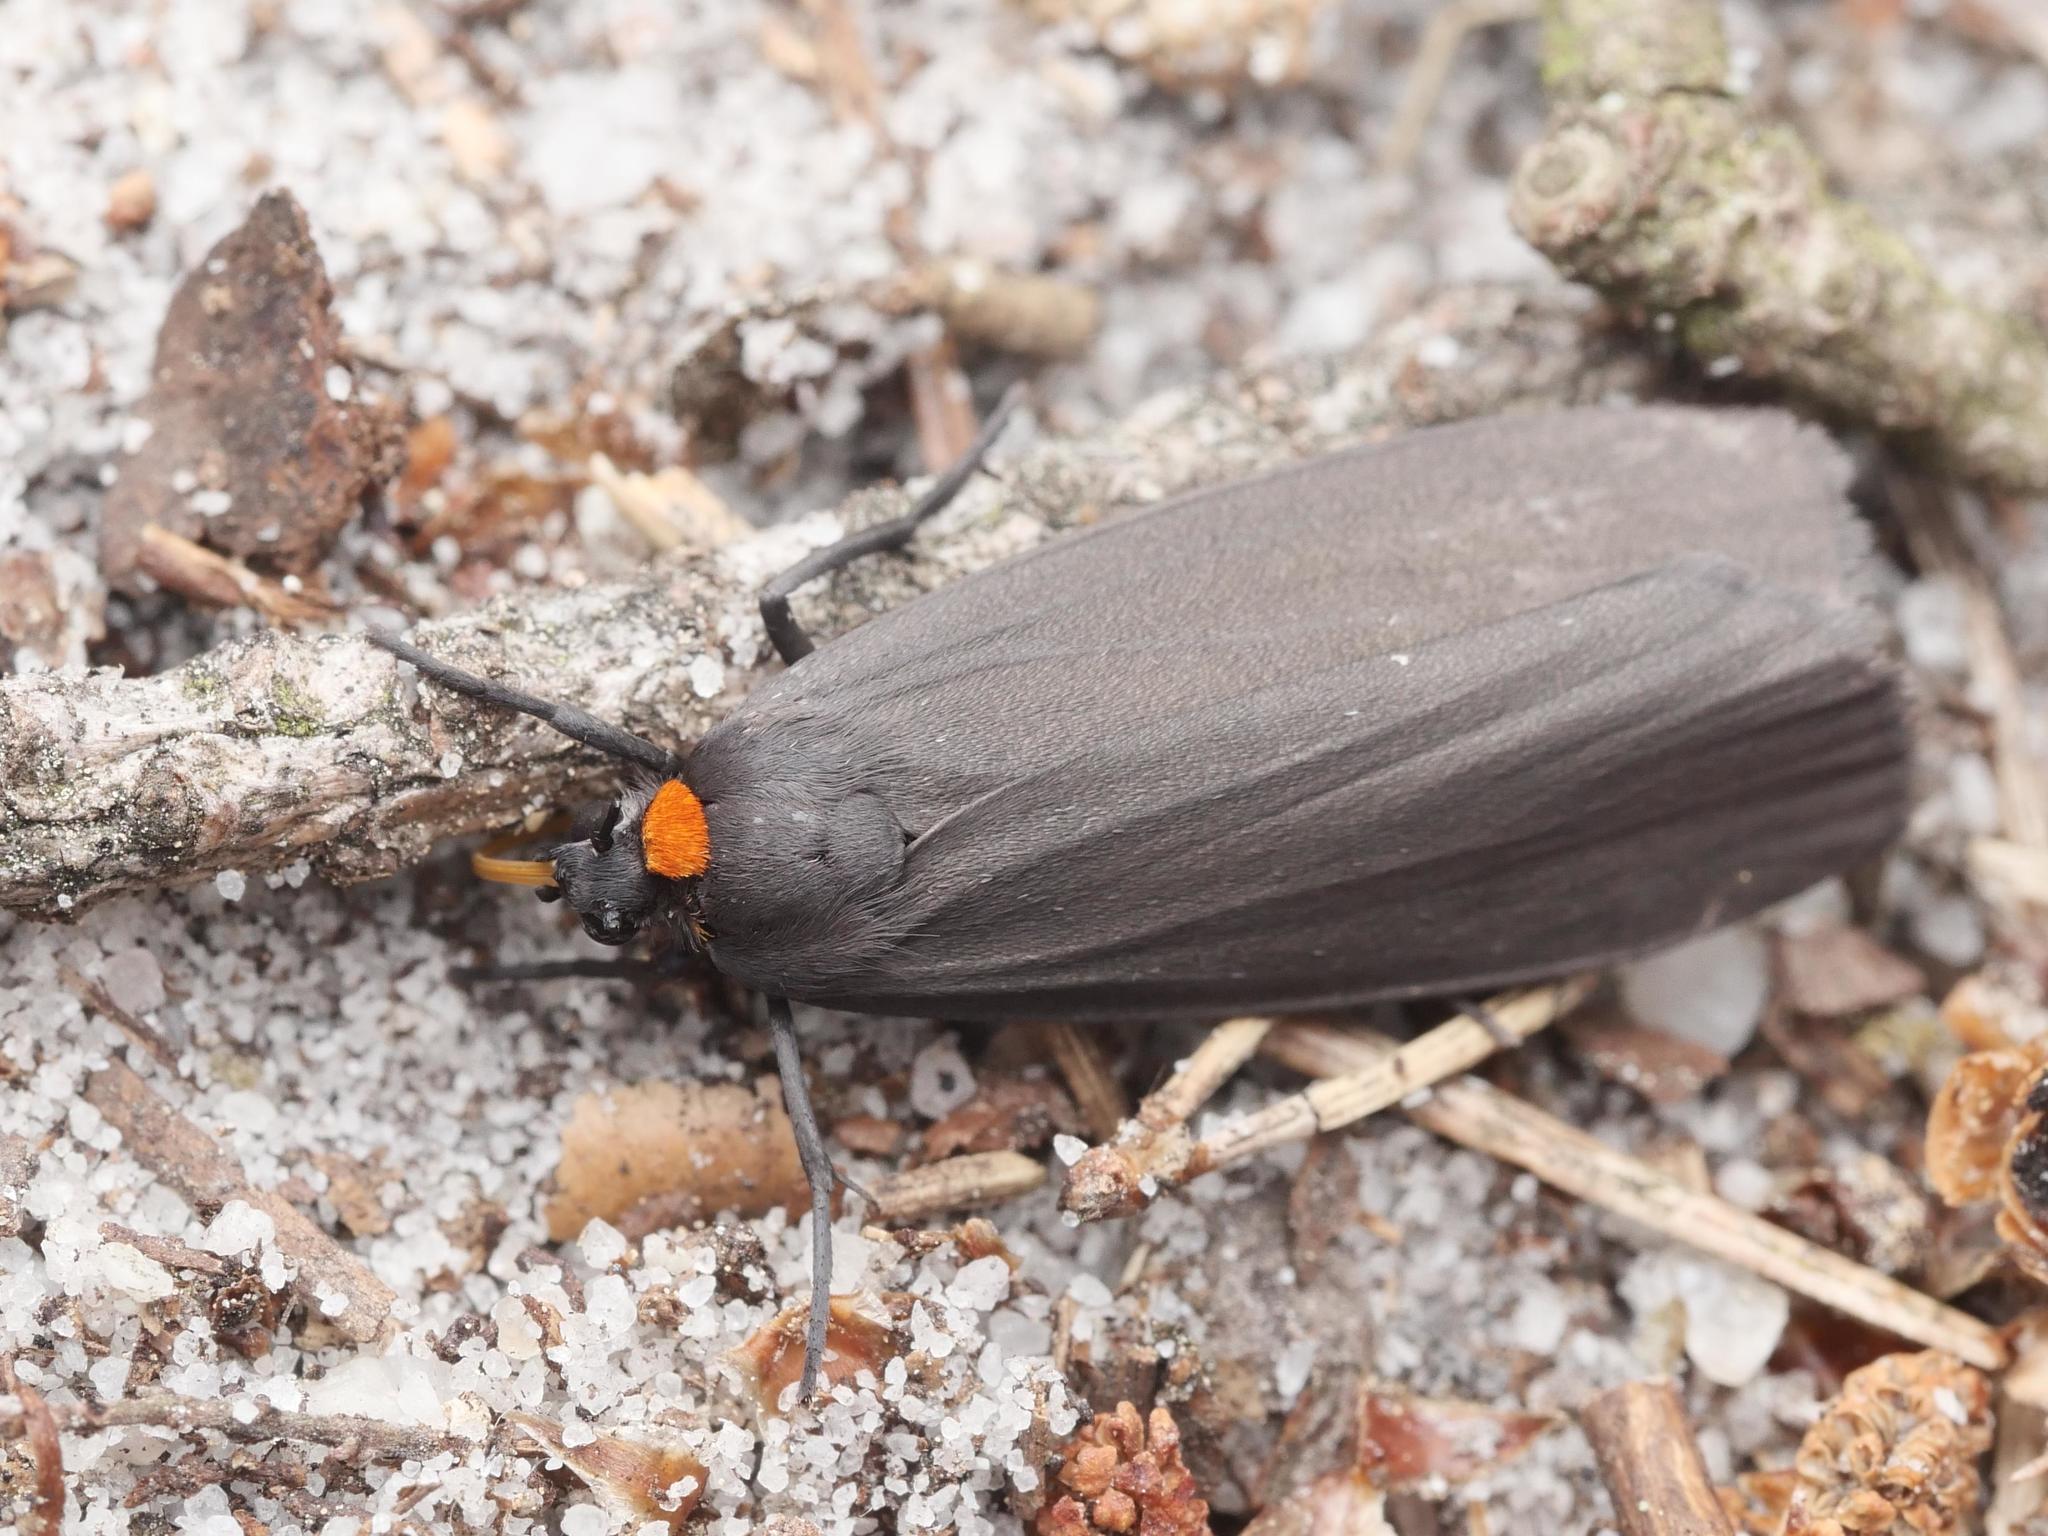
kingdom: Animalia
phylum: Arthropoda
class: Insecta
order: Lepidoptera
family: Erebidae
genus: Atolmis
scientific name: Atolmis rubricollis
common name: Red-necked footman
